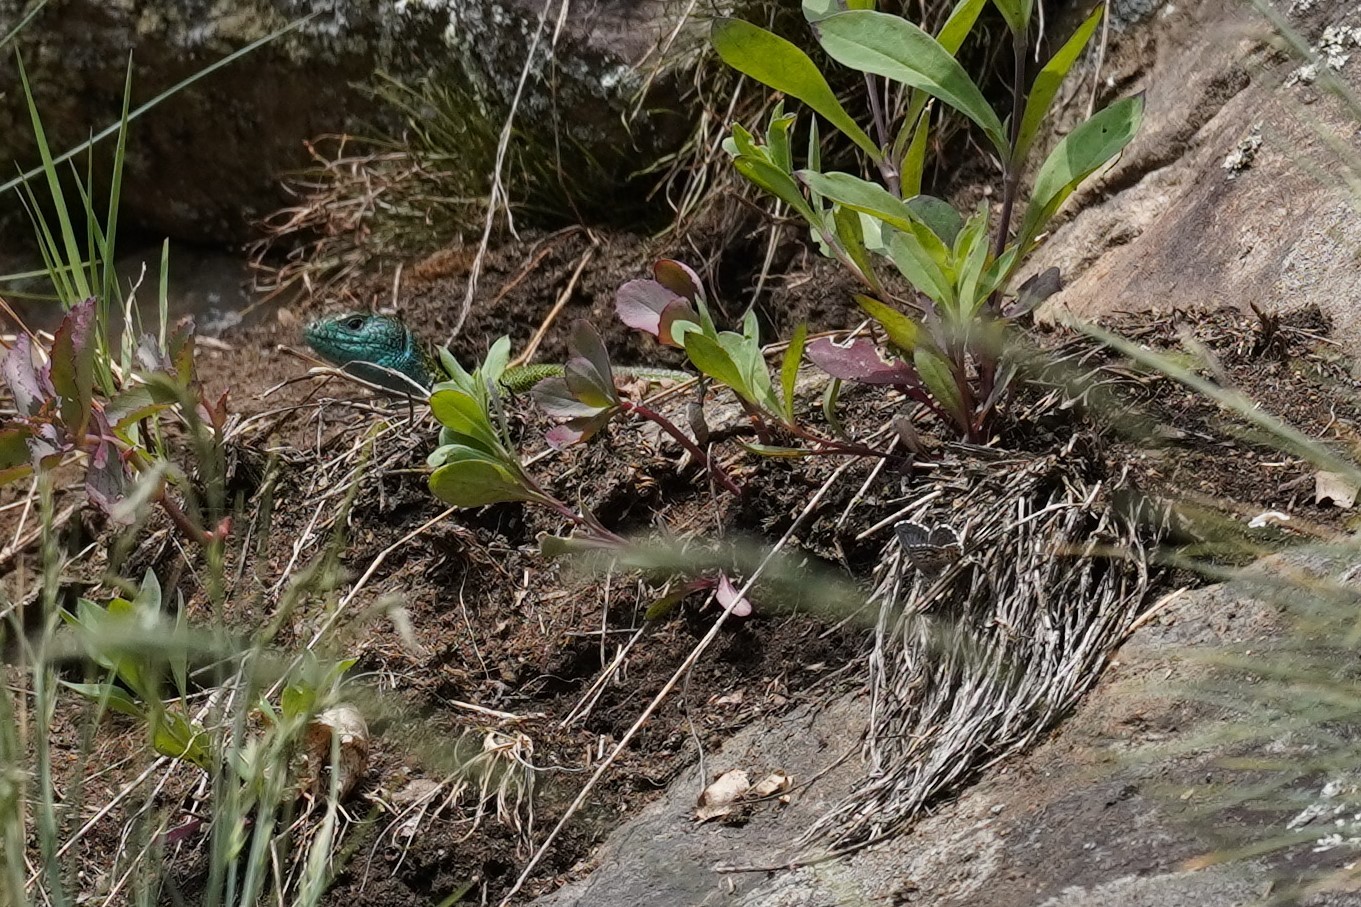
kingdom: Animalia
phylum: Arthropoda
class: Insecta
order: Lepidoptera
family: Lycaenidae
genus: Scolitantides
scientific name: Scolitantides orion
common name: Chequered blue
